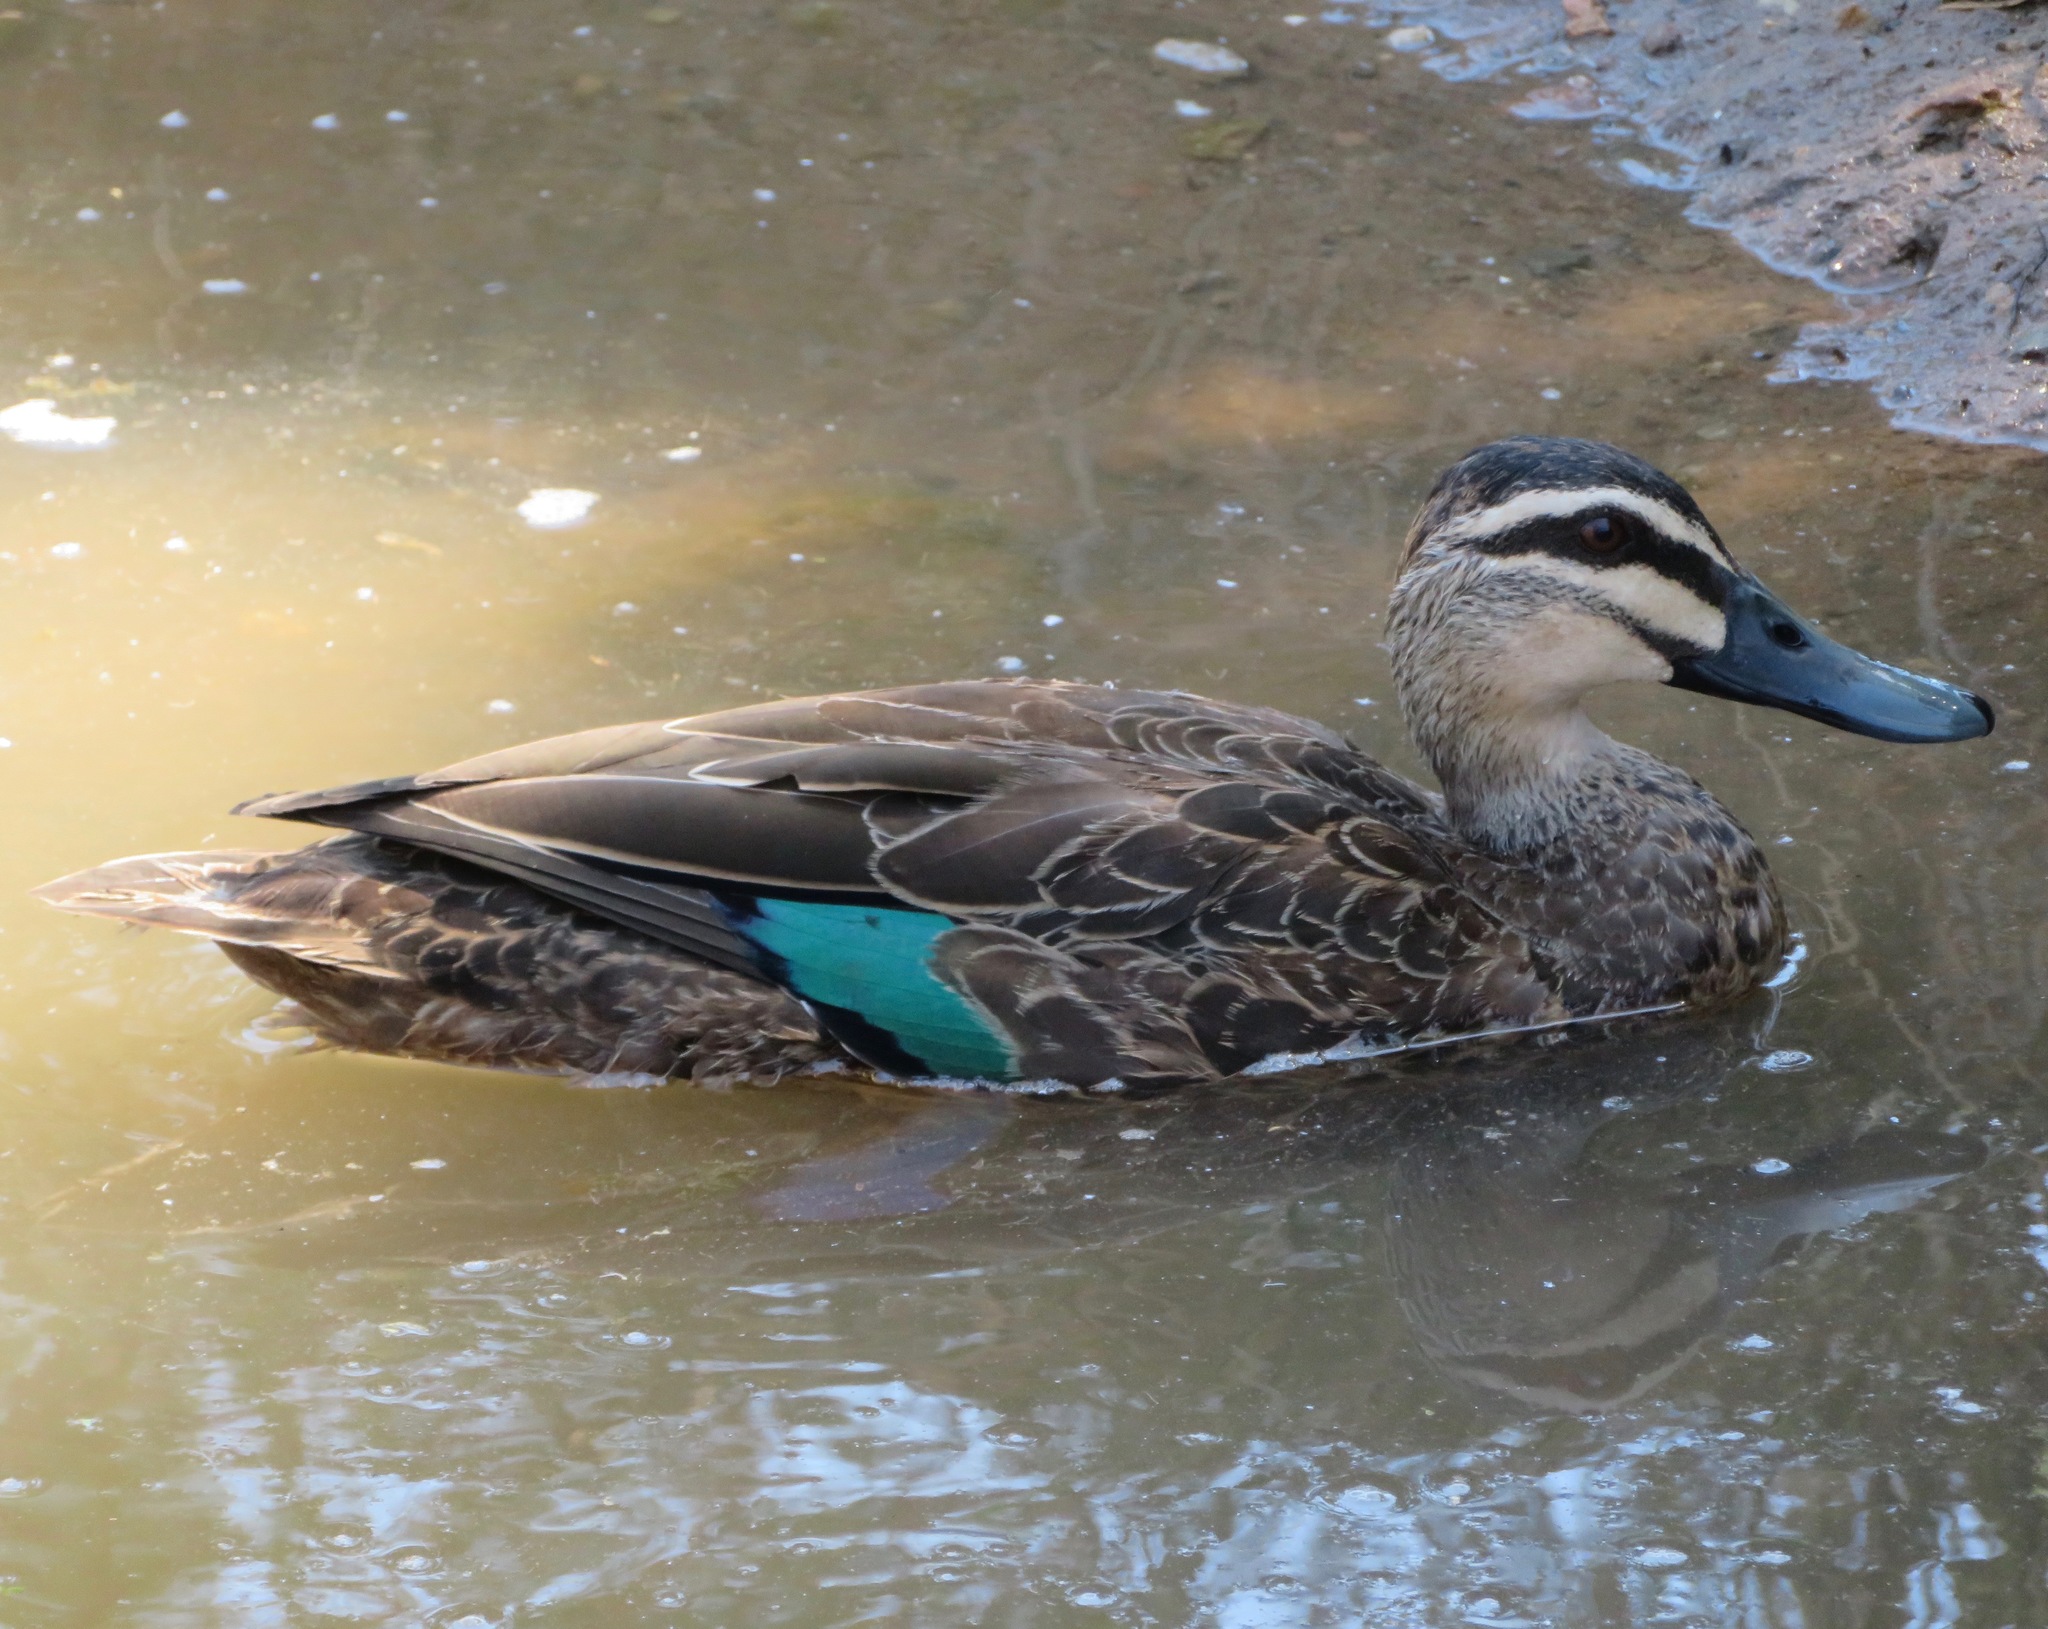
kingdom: Animalia
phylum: Chordata
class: Aves
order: Anseriformes
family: Anatidae
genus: Anas
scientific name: Anas superciliosa
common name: Pacific black duck
